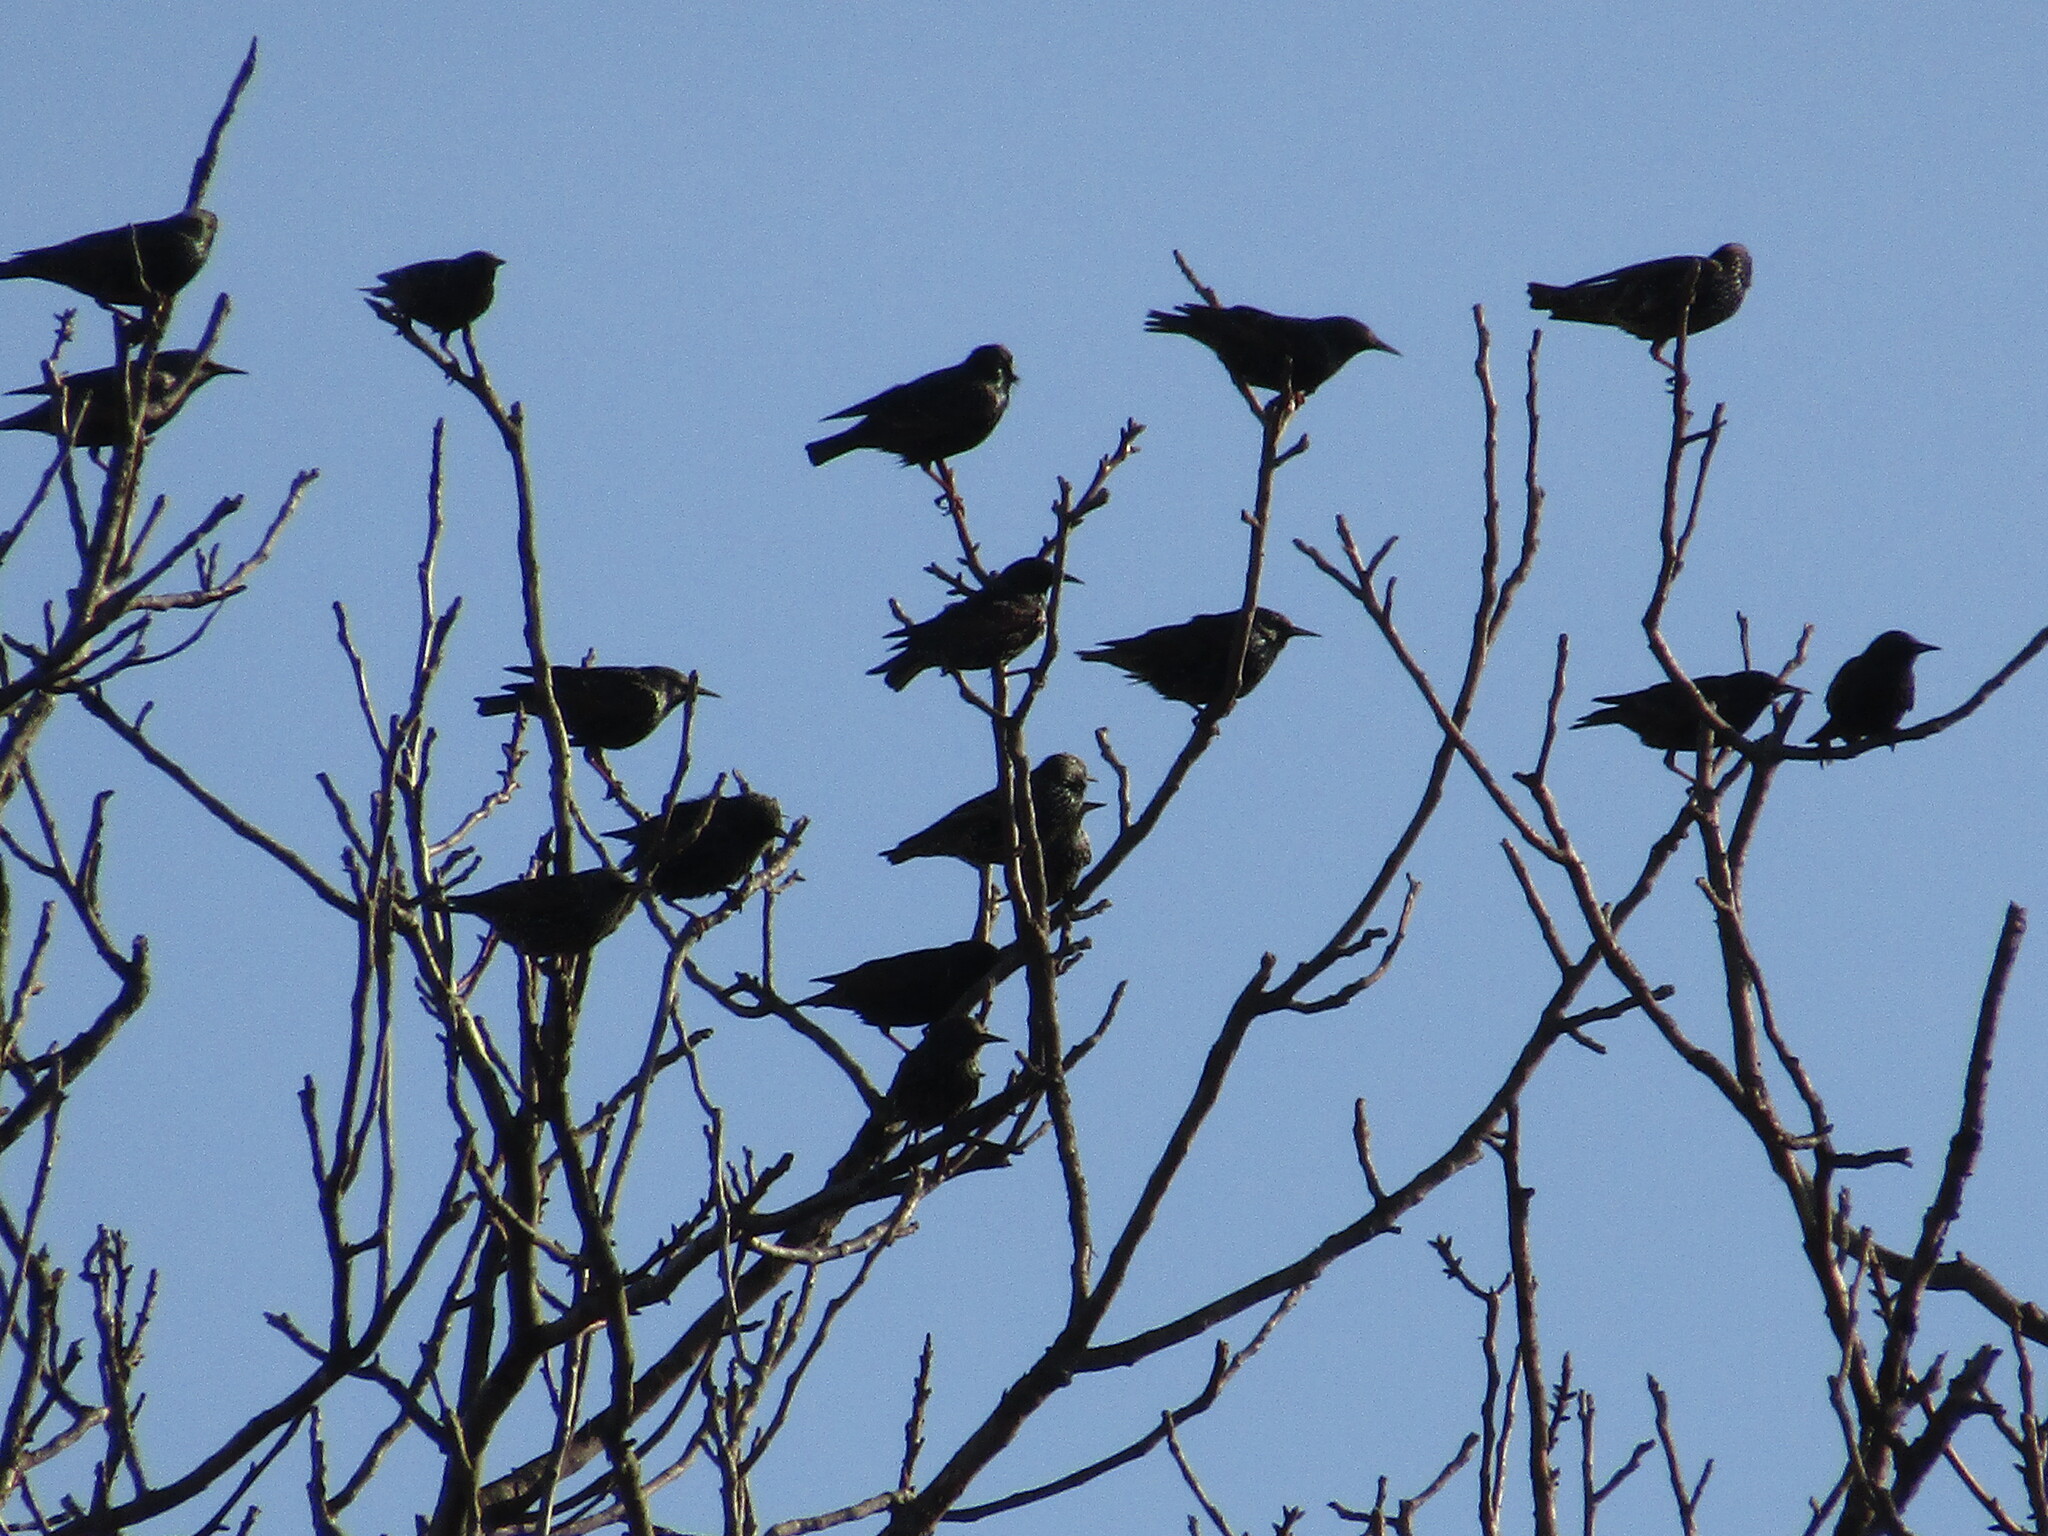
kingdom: Animalia
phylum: Chordata
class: Aves
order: Passeriformes
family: Sturnidae
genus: Sturnus
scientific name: Sturnus vulgaris
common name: Common starling
